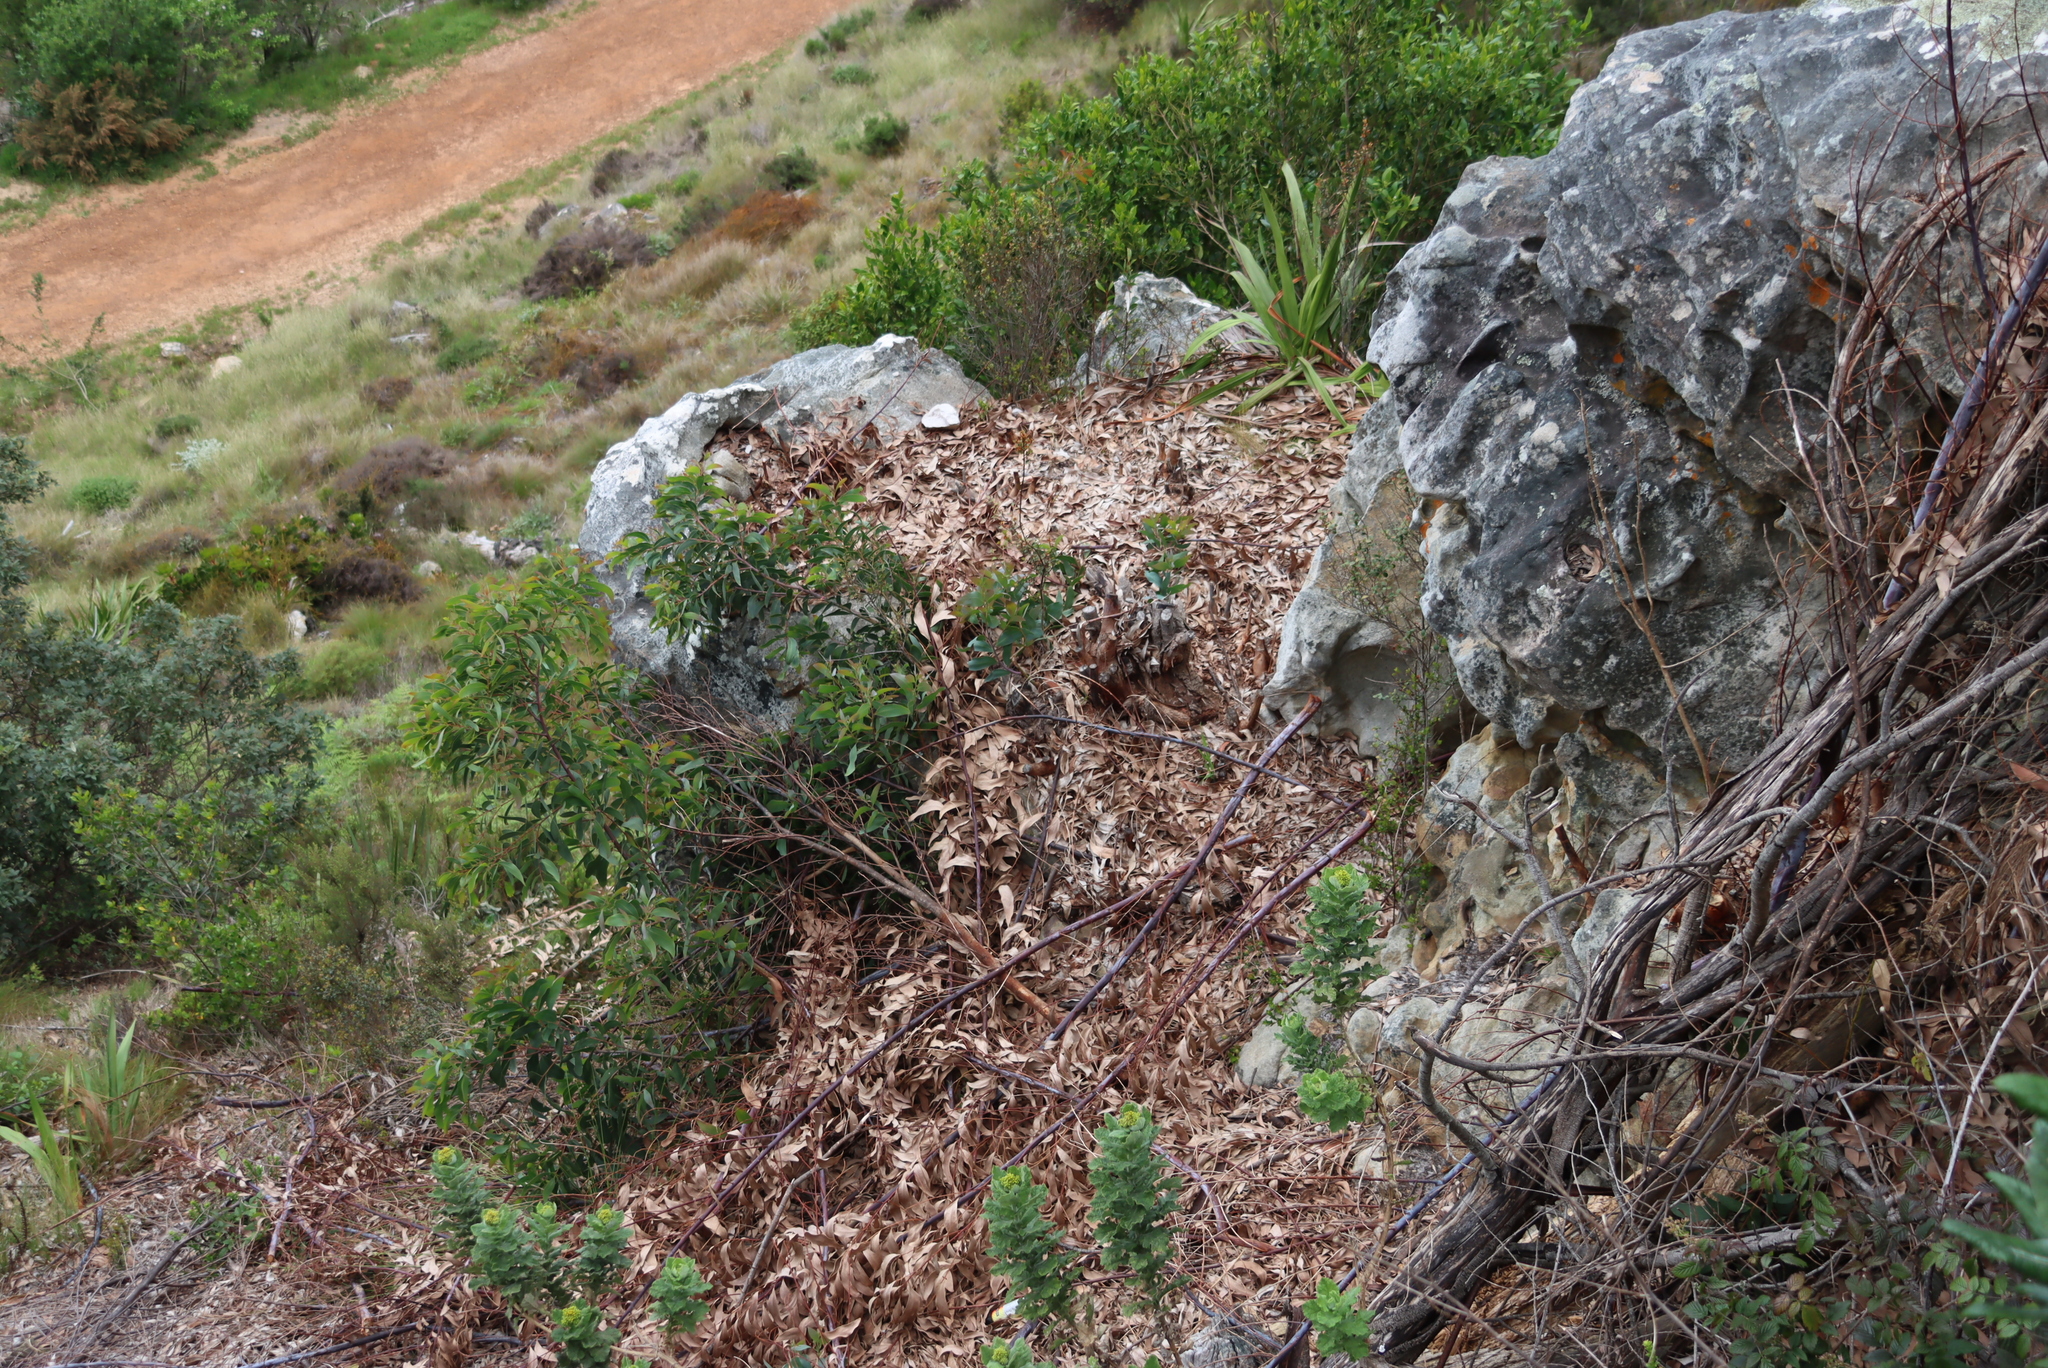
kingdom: Plantae
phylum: Tracheophyta
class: Magnoliopsida
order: Fabales
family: Fabaceae
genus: Acacia
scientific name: Acacia falciformis
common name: Tanning wattle
